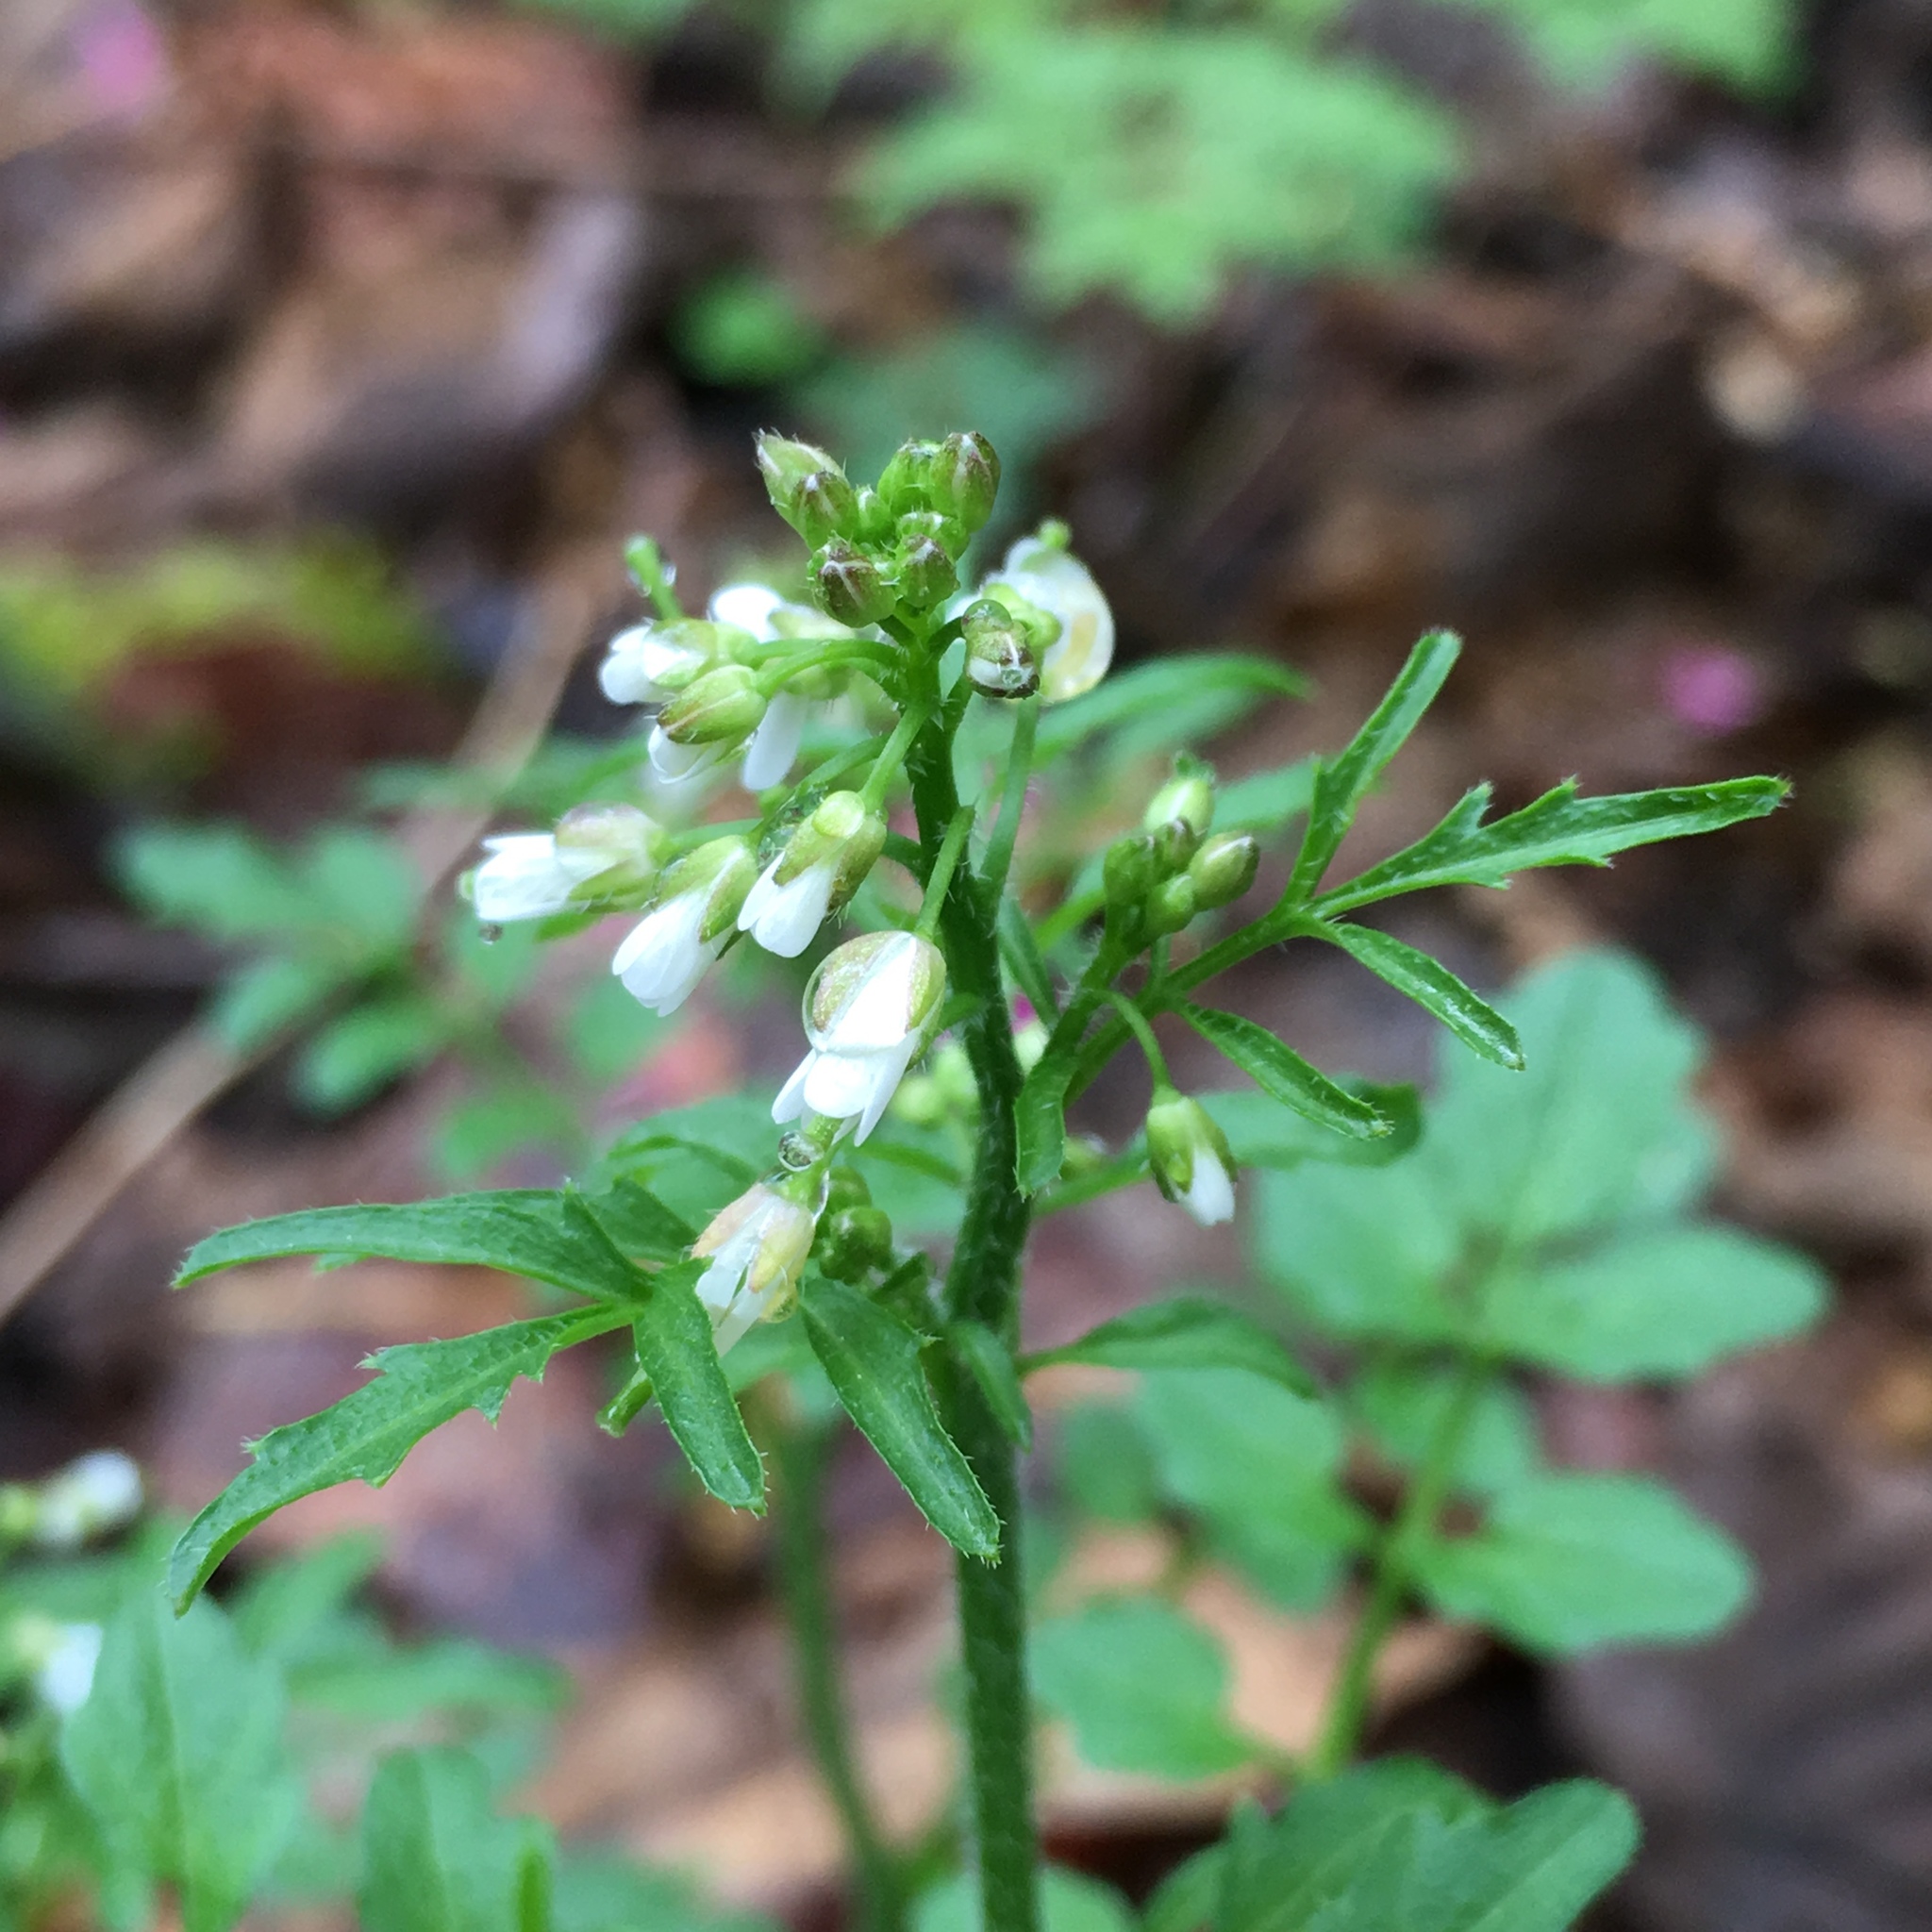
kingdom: Plantae
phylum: Tracheophyta
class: Magnoliopsida
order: Brassicales
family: Brassicaceae
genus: Cardamine
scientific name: Cardamine flexuosa
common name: Woodland bittercress
